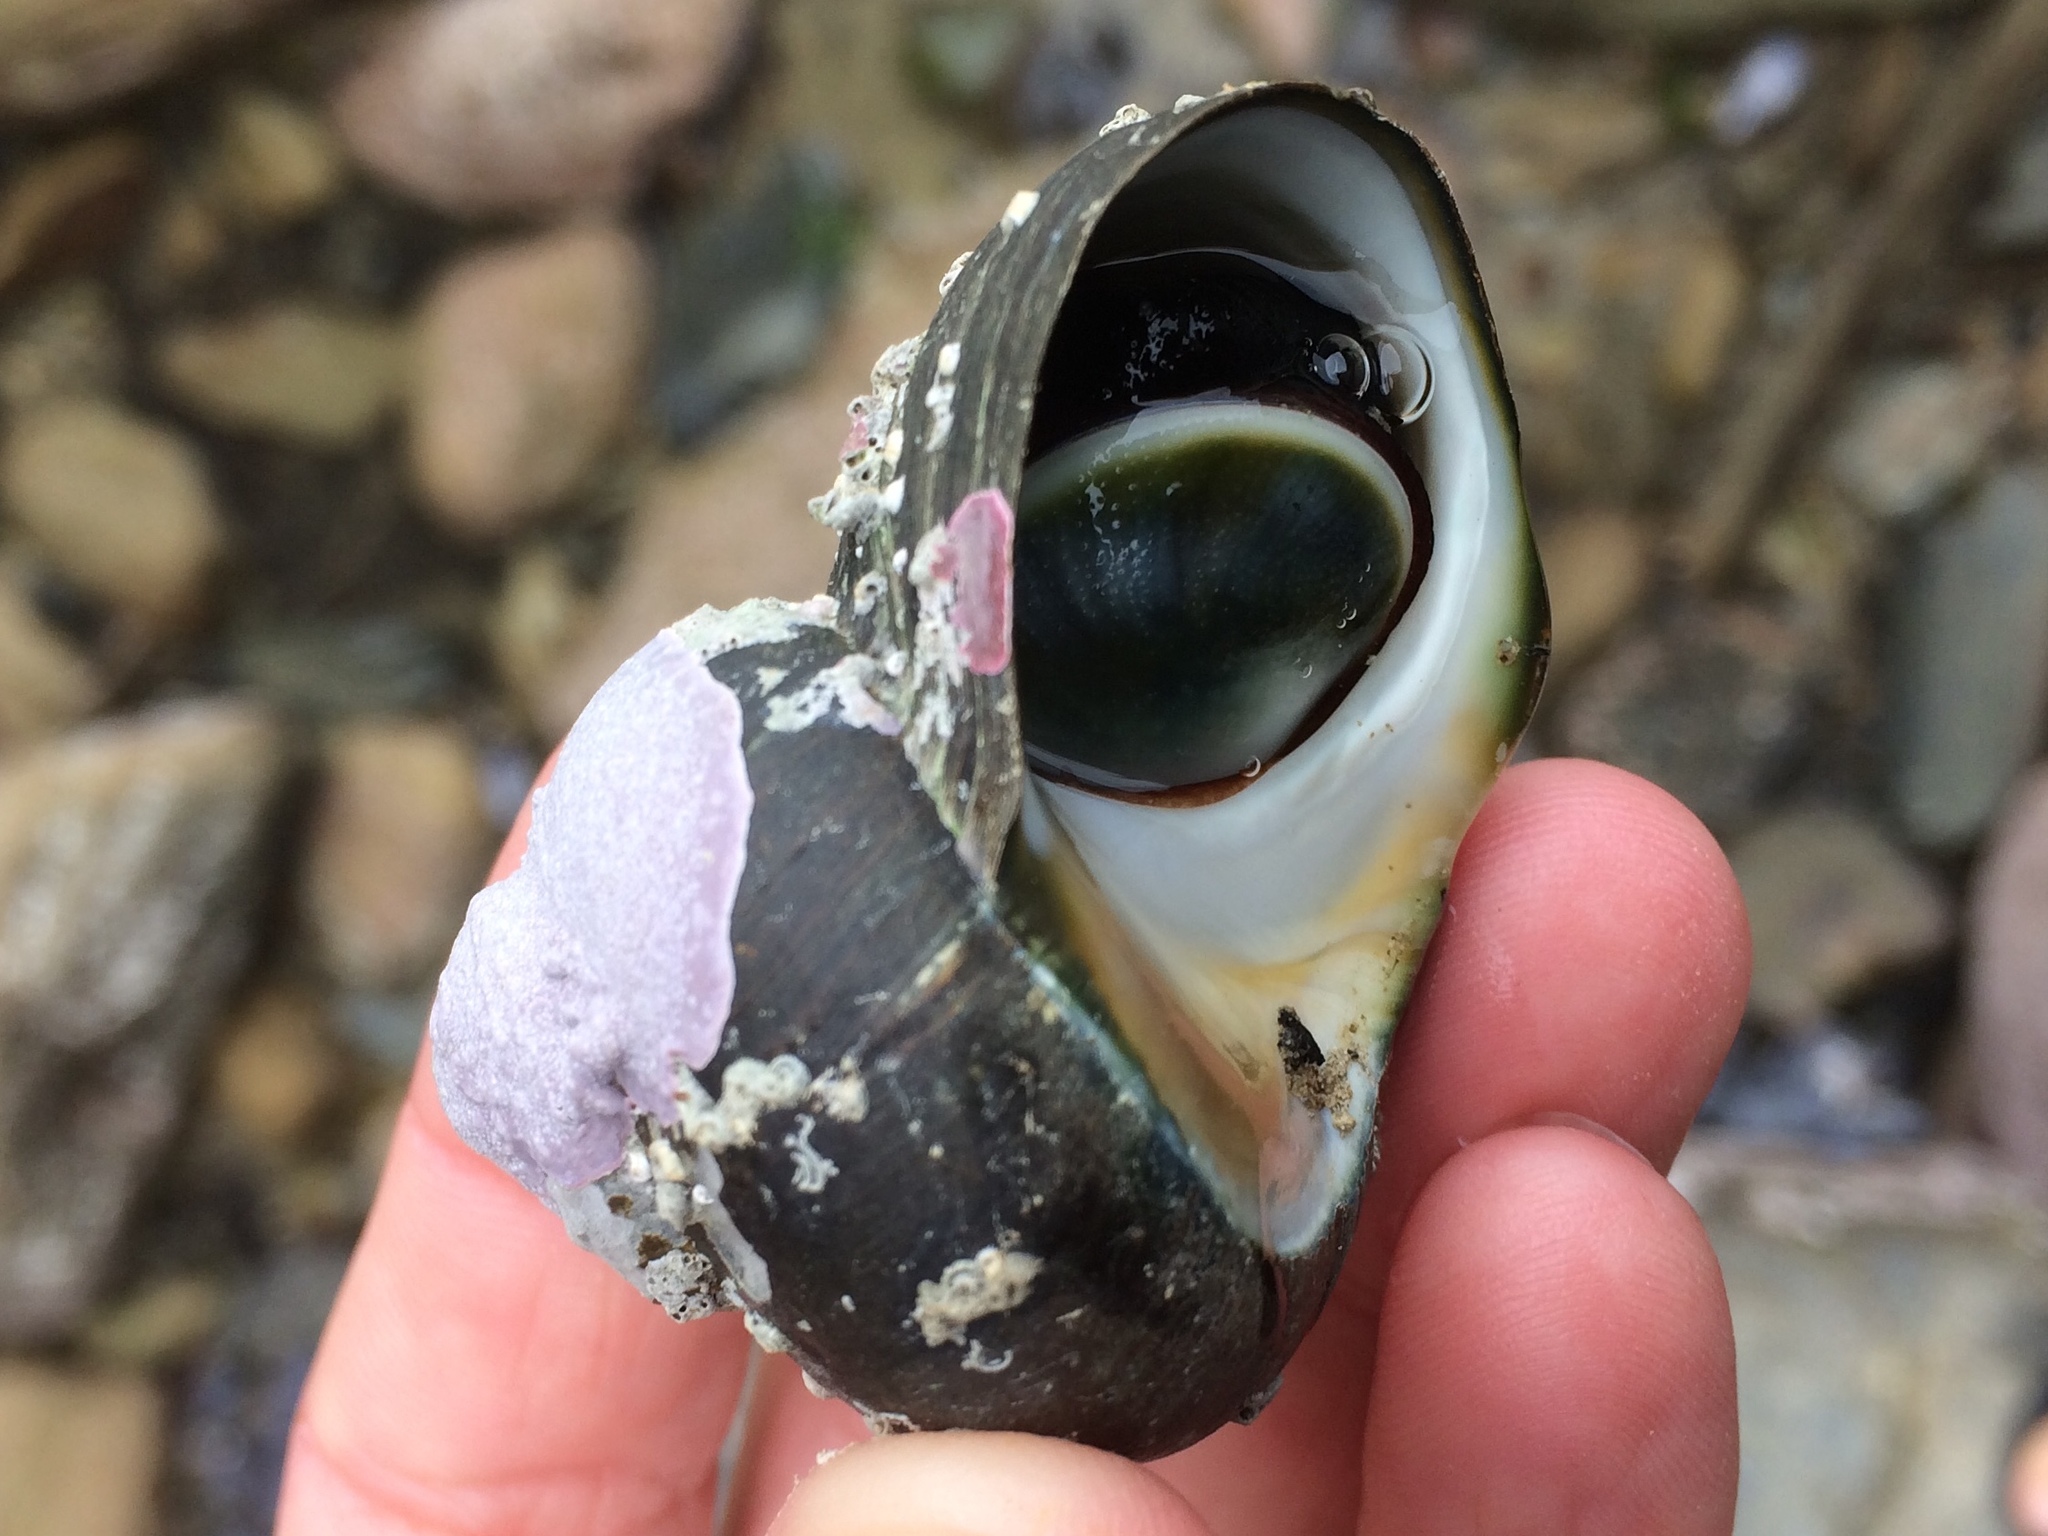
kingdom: Animalia
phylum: Mollusca
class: Gastropoda
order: Trochida
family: Turbinidae
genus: Lunella
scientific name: Lunella smaragda
